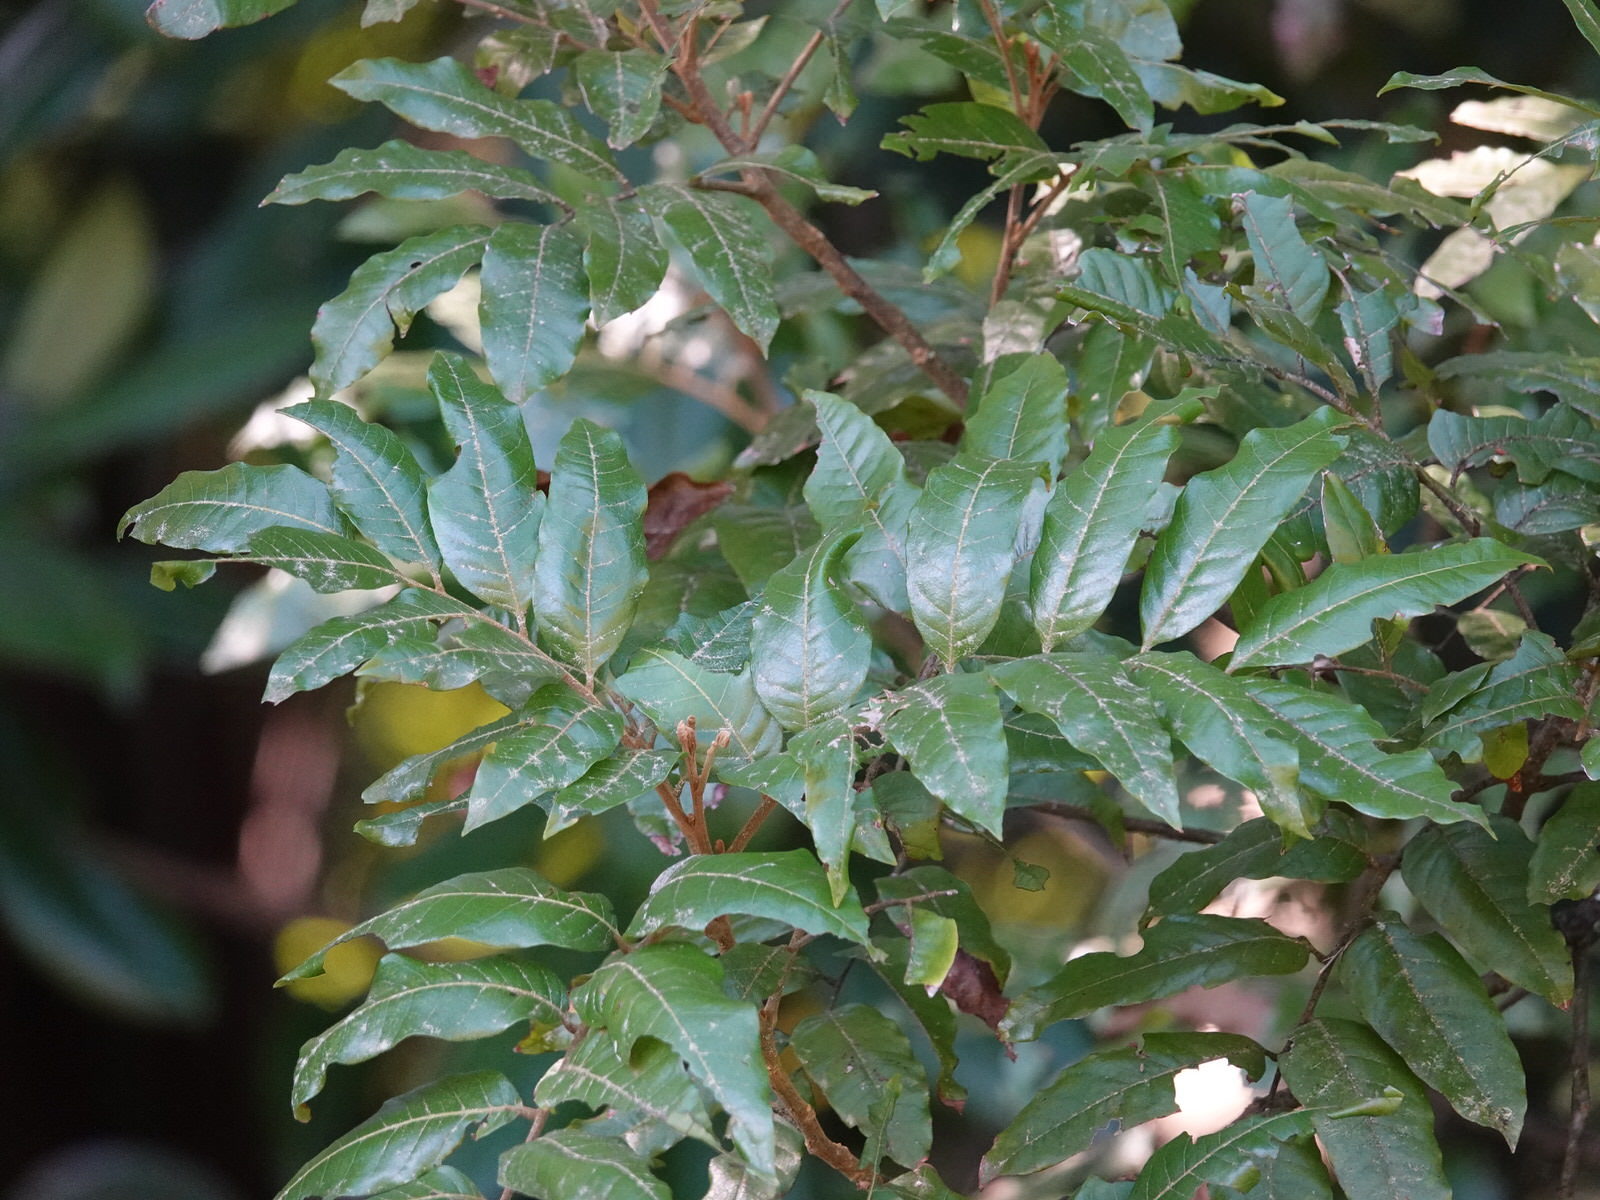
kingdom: Plantae
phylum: Tracheophyta
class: Magnoliopsida
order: Sapindales
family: Sapindaceae
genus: Alectryon
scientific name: Alectryon excelsus
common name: Three kings titoki
